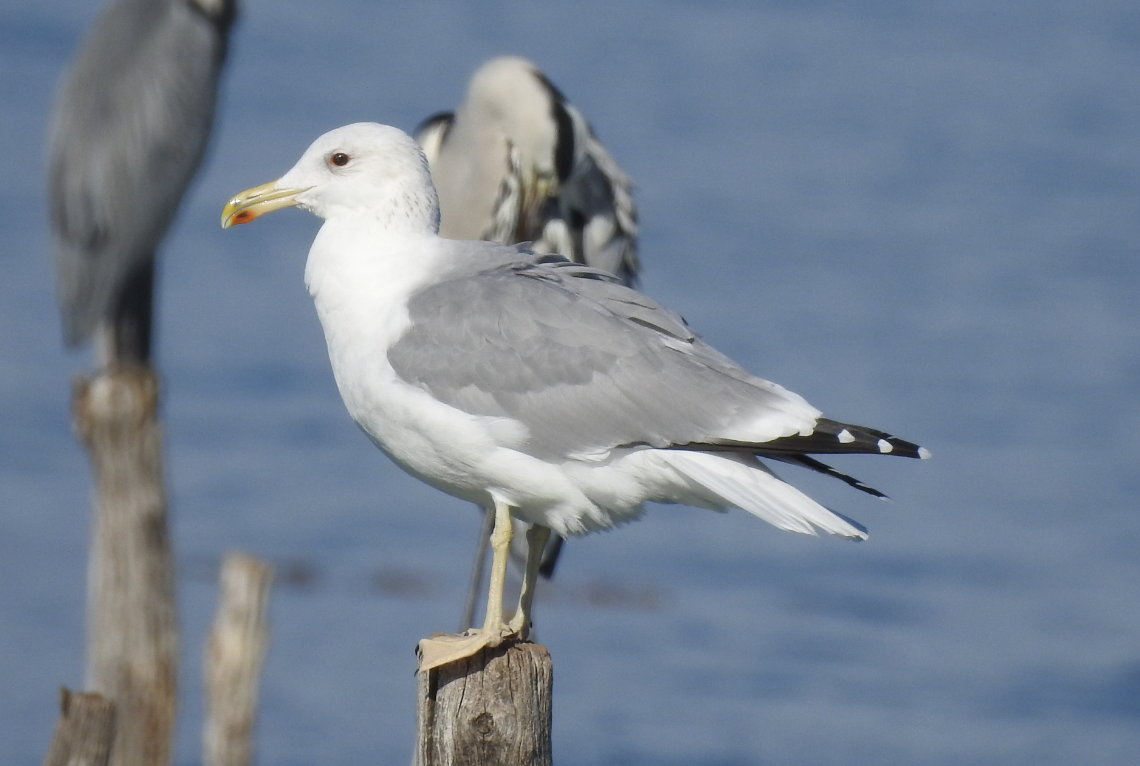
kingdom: Animalia
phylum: Chordata
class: Aves
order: Charadriiformes
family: Laridae
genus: Larus
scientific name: Larus cachinnans
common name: Caspian gull
